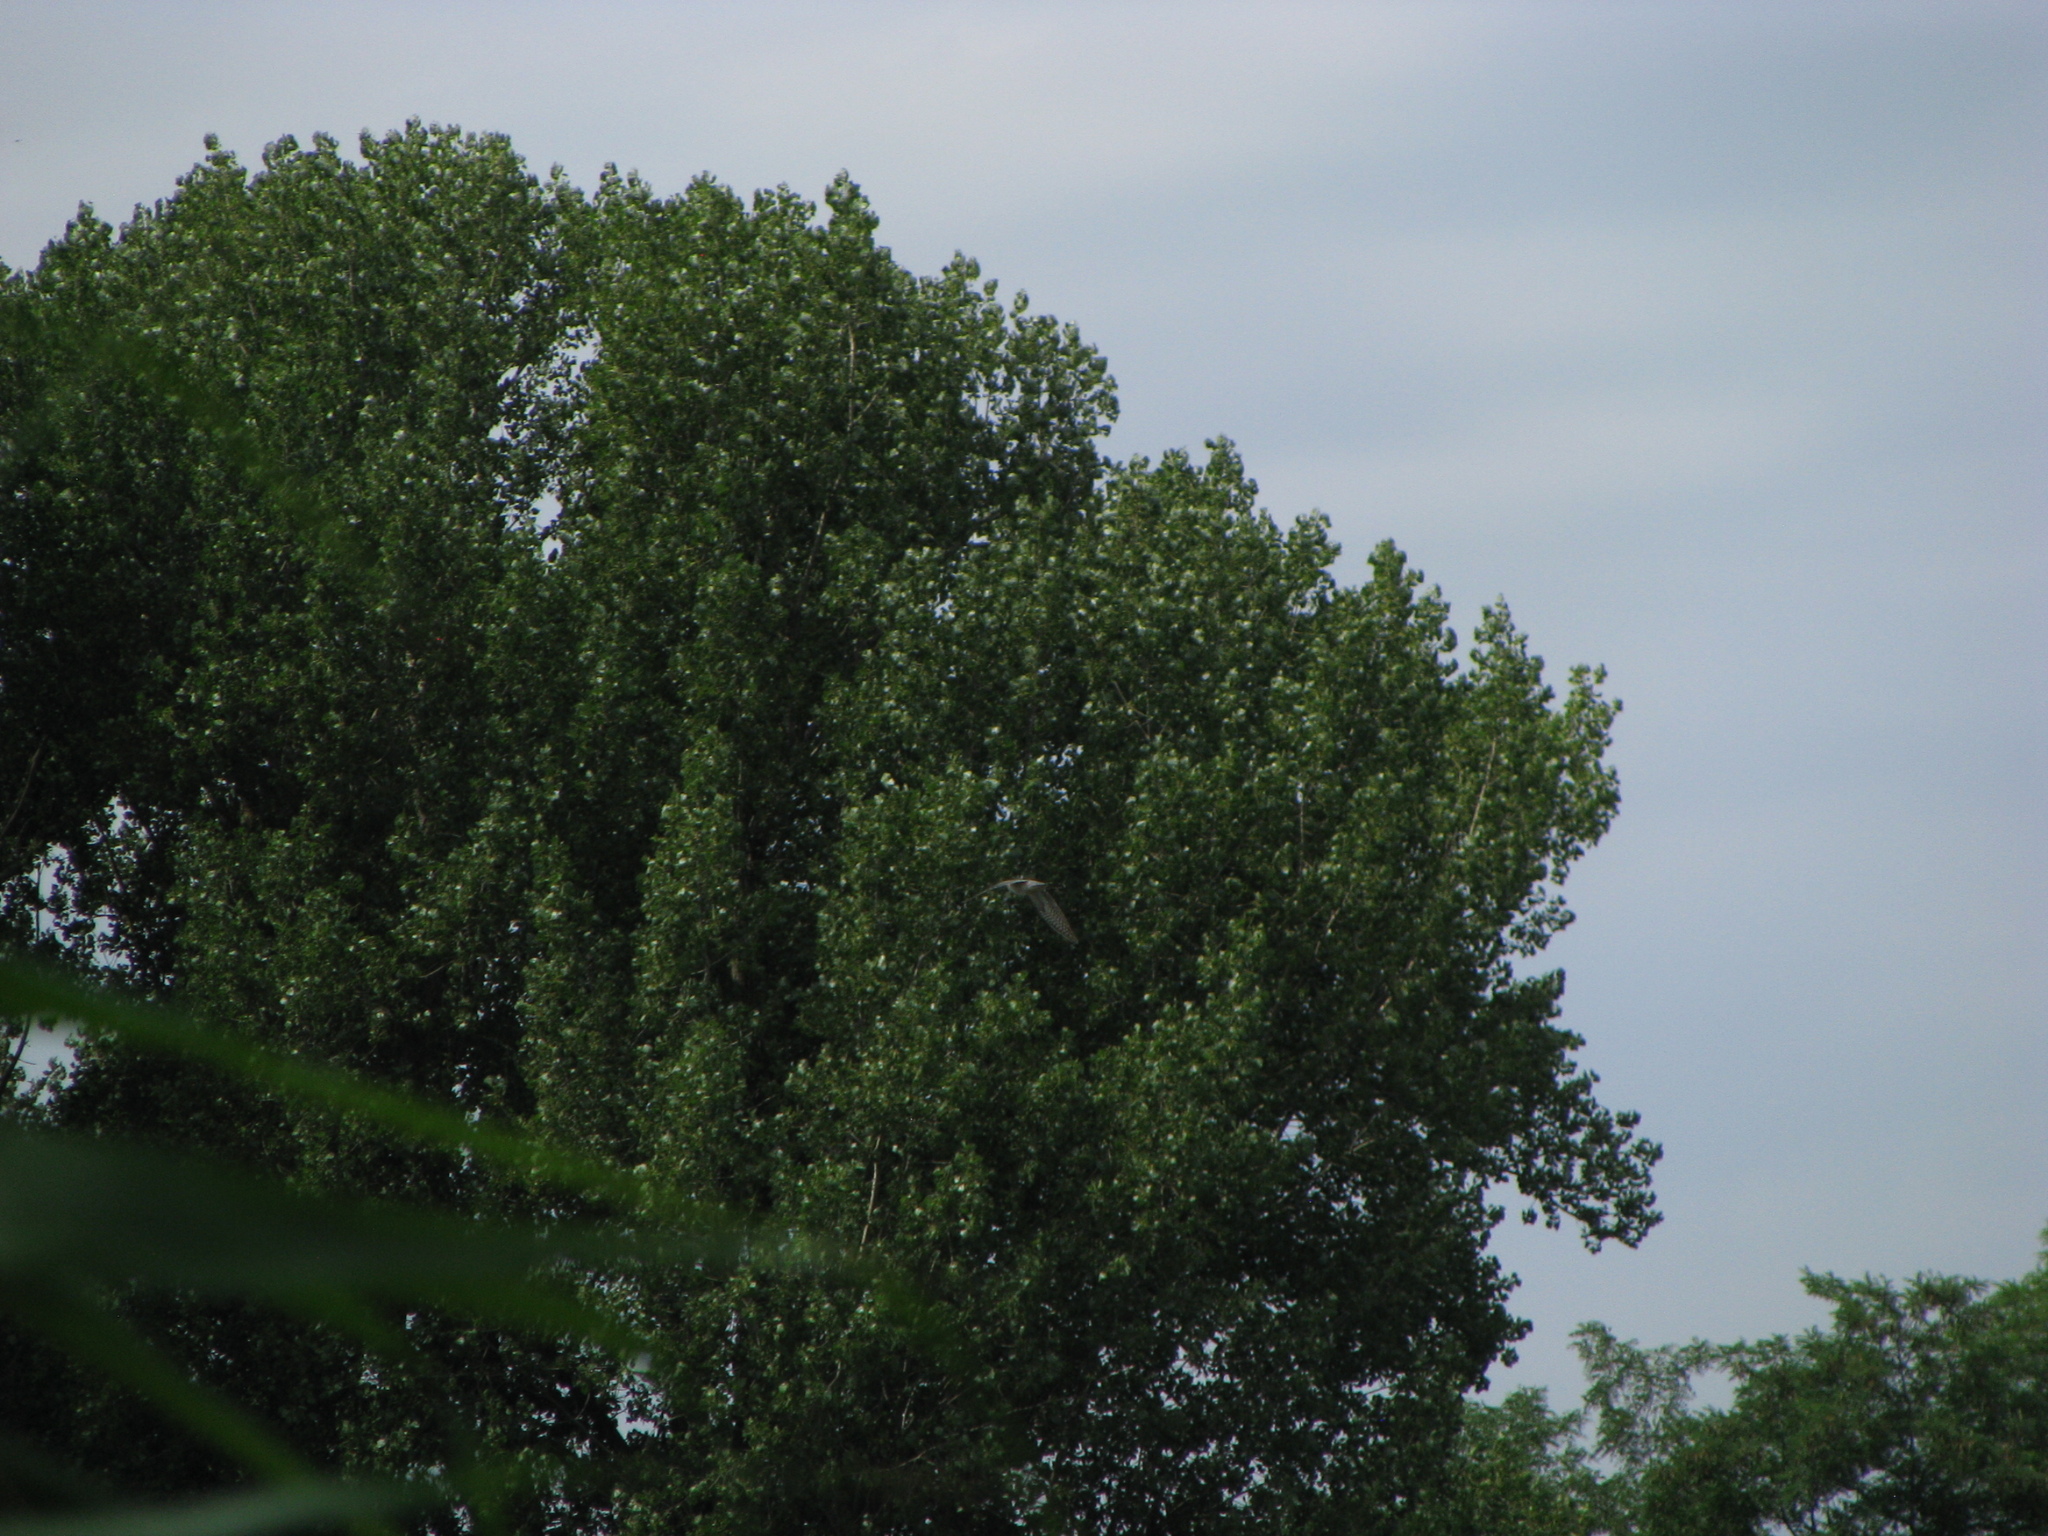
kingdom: Animalia
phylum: Chordata
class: Aves
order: Cuculiformes
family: Cuculidae
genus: Cuculus
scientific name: Cuculus canorus
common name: Common cuckoo
